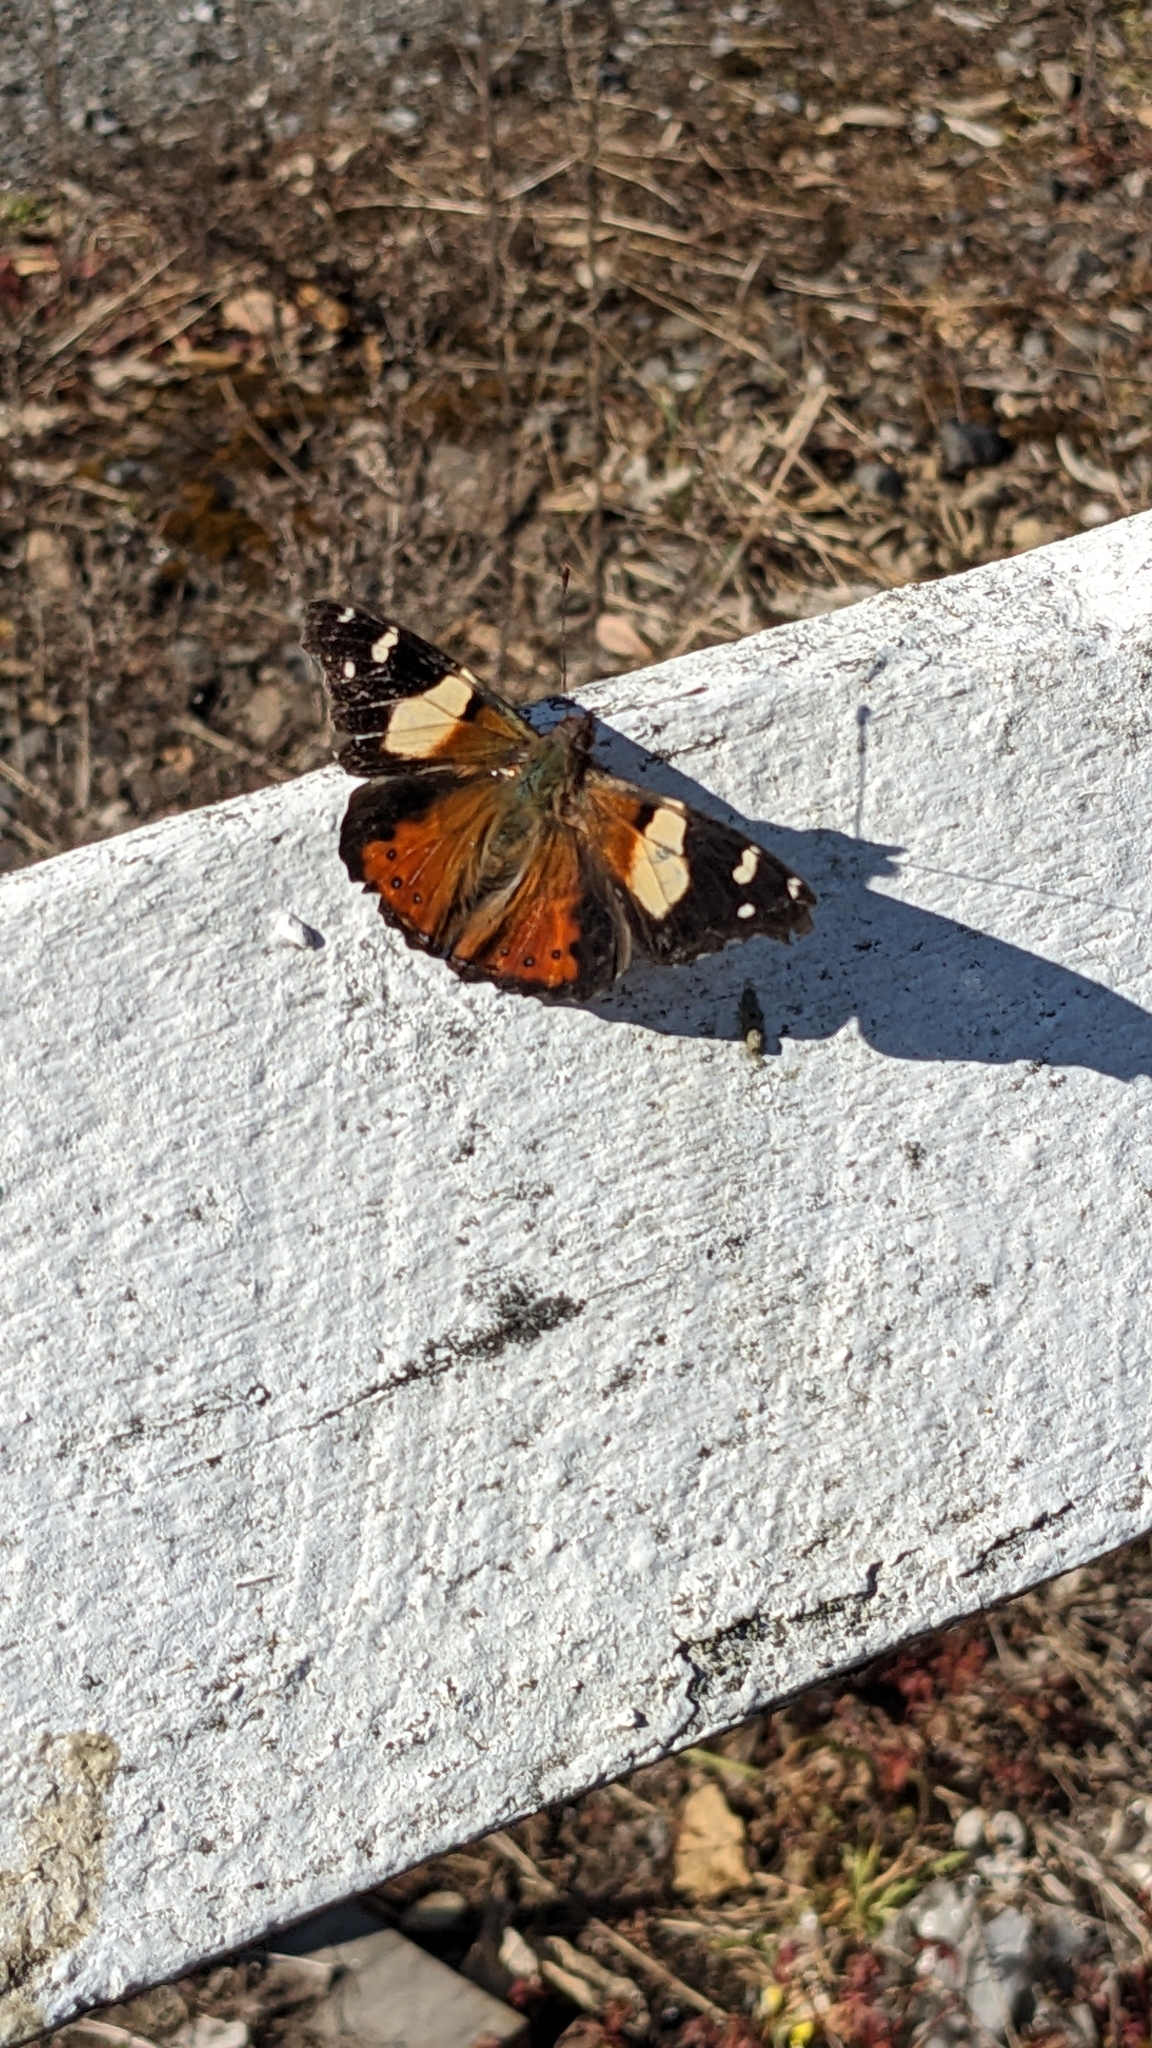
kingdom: Animalia
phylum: Arthropoda
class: Insecta
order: Lepidoptera
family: Nymphalidae
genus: Vanessa
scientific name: Vanessa itea
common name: Yellow admiral
